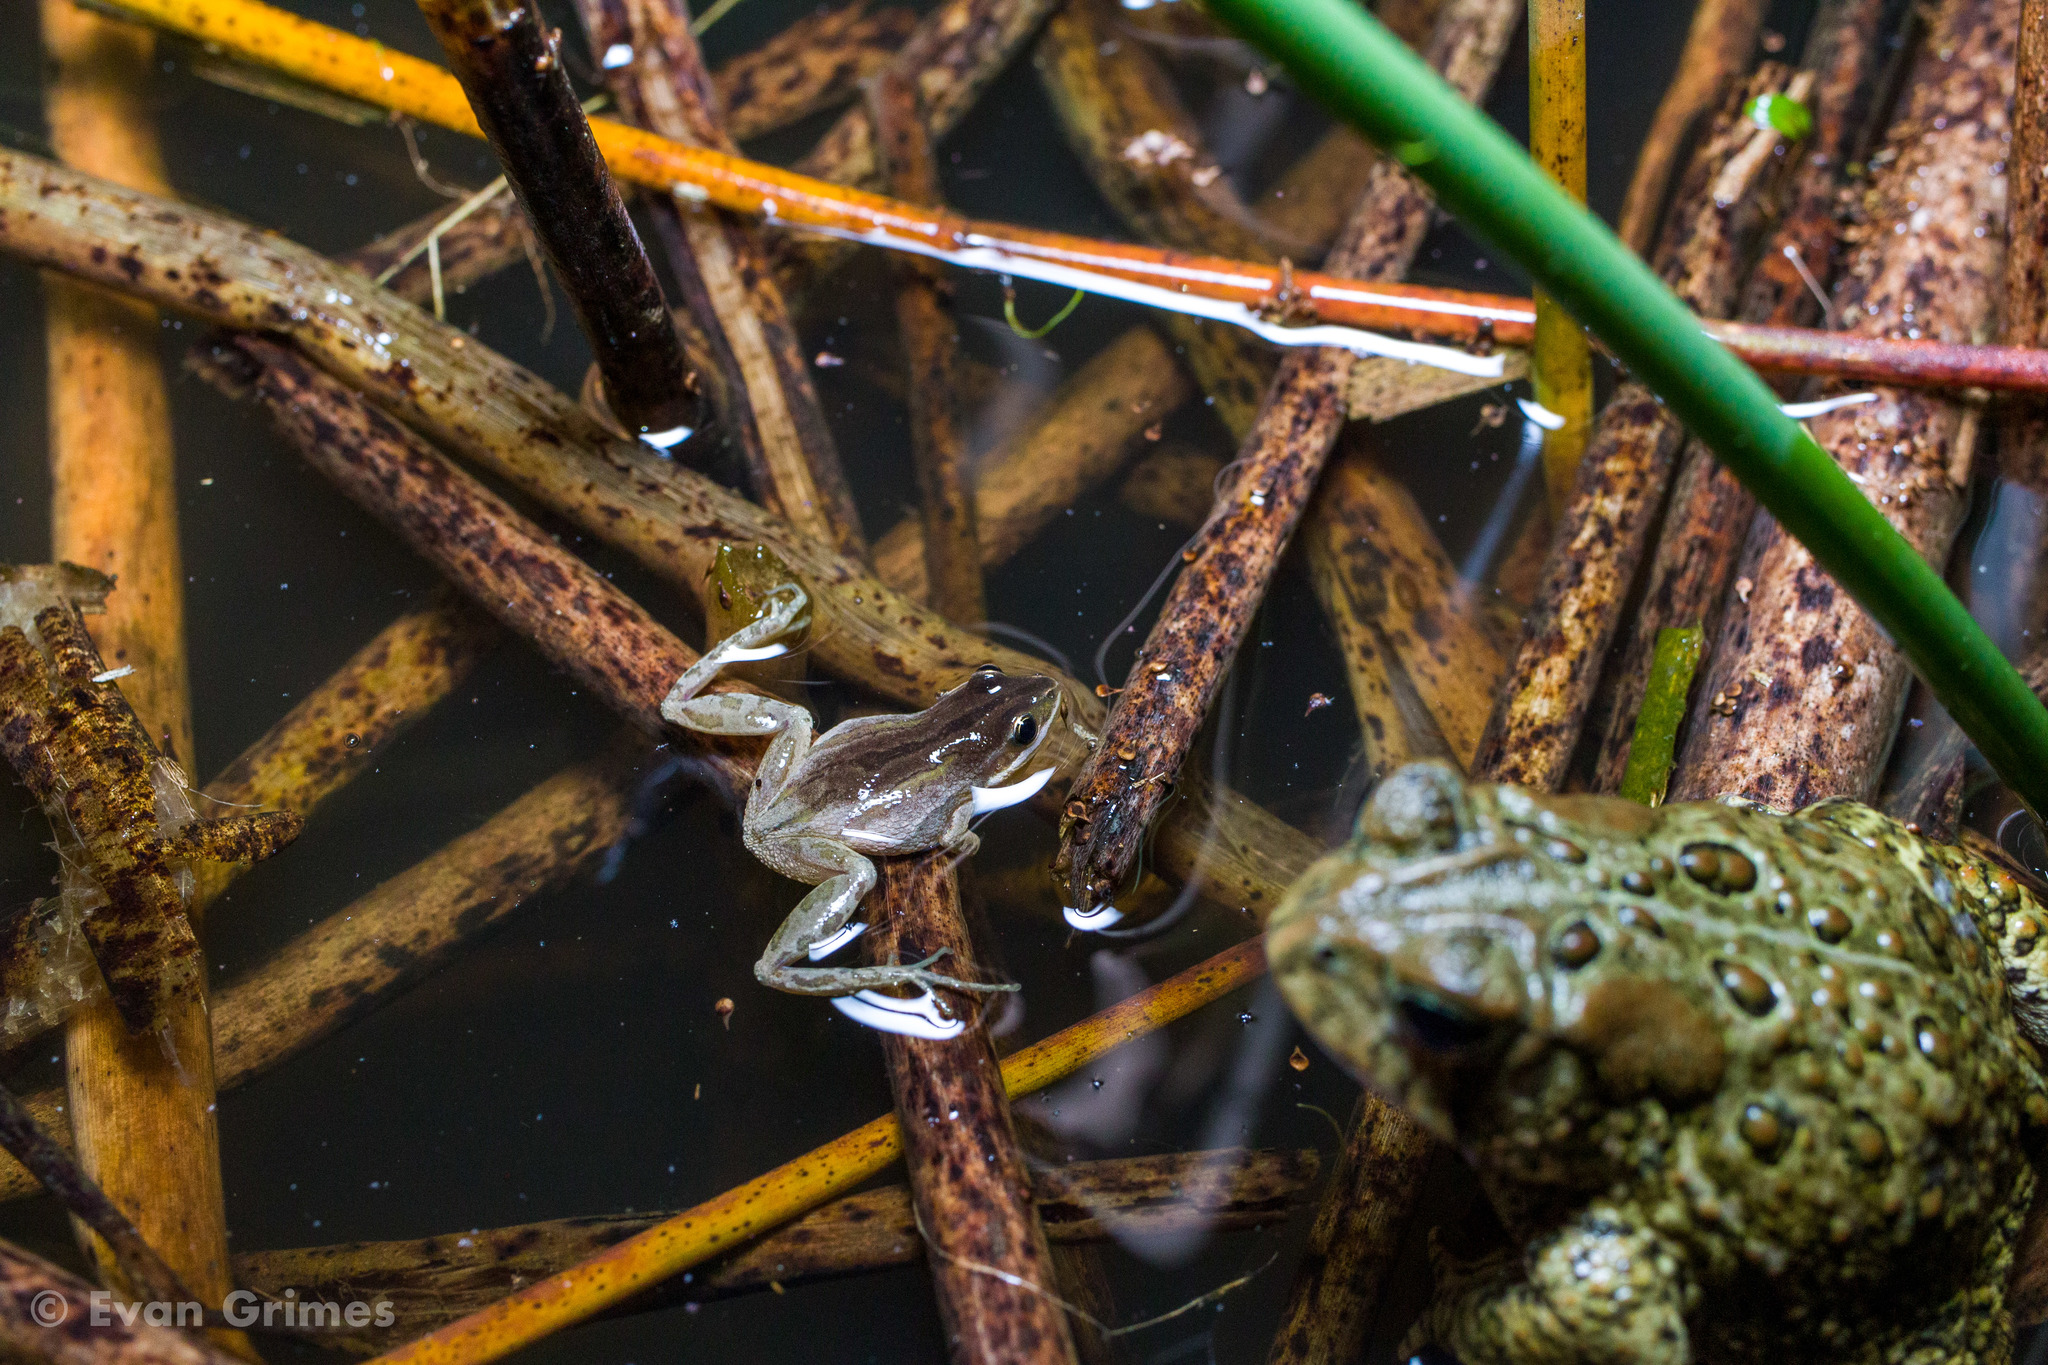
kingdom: Animalia
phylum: Chordata
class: Amphibia
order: Anura
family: Hylidae
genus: Pseudacris
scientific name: Pseudacris maculata
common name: Boreal chorus frog
